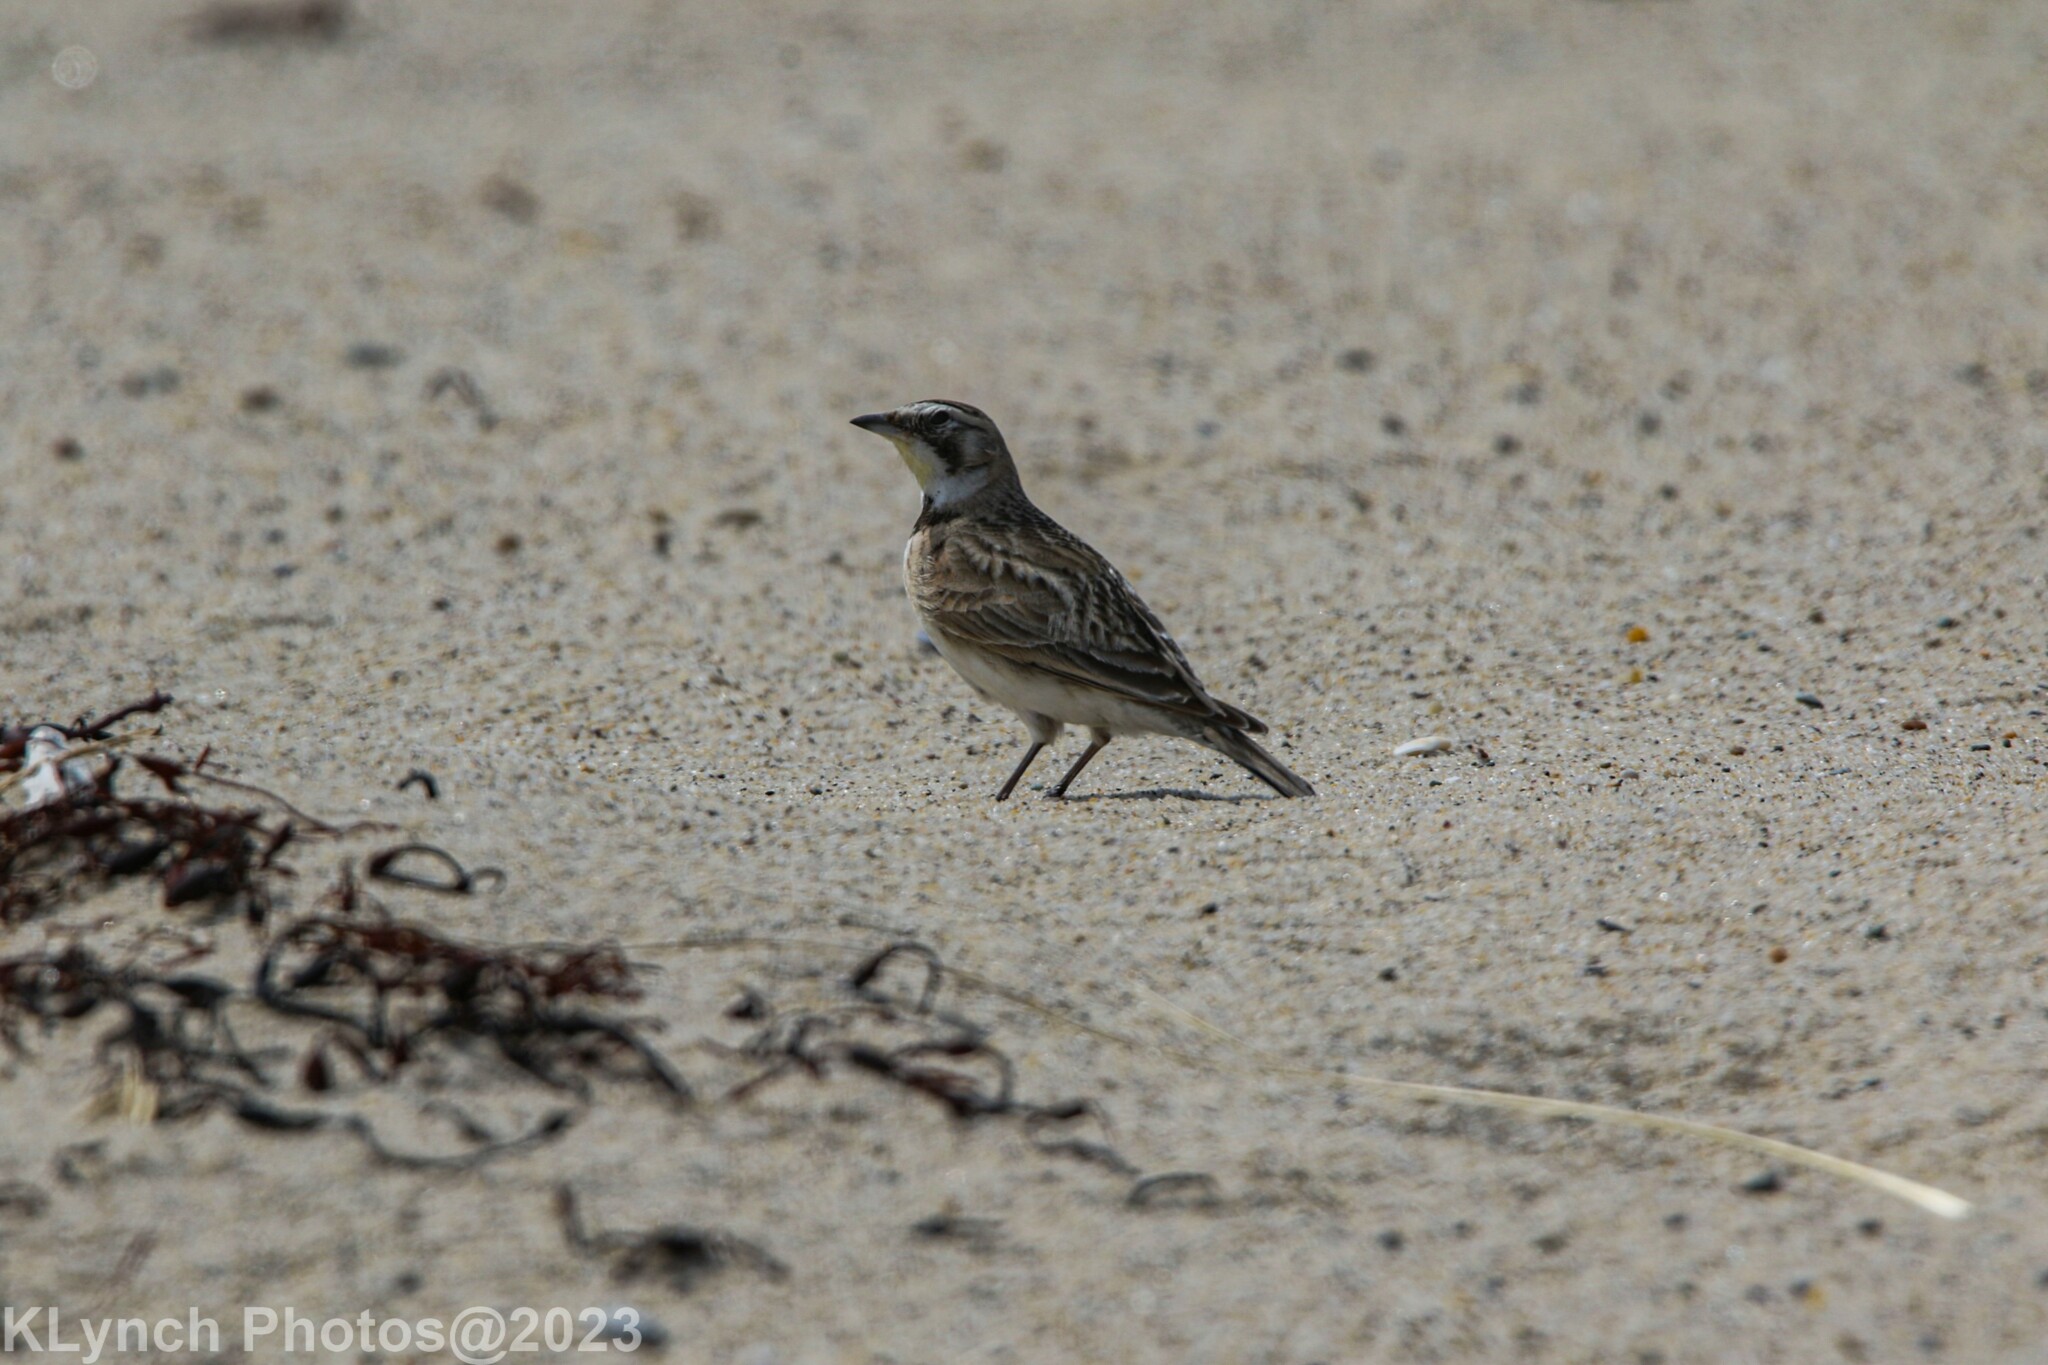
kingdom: Animalia
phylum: Chordata
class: Aves
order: Passeriformes
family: Alaudidae
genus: Eremophila
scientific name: Eremophila alpestris
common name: Horned lark
